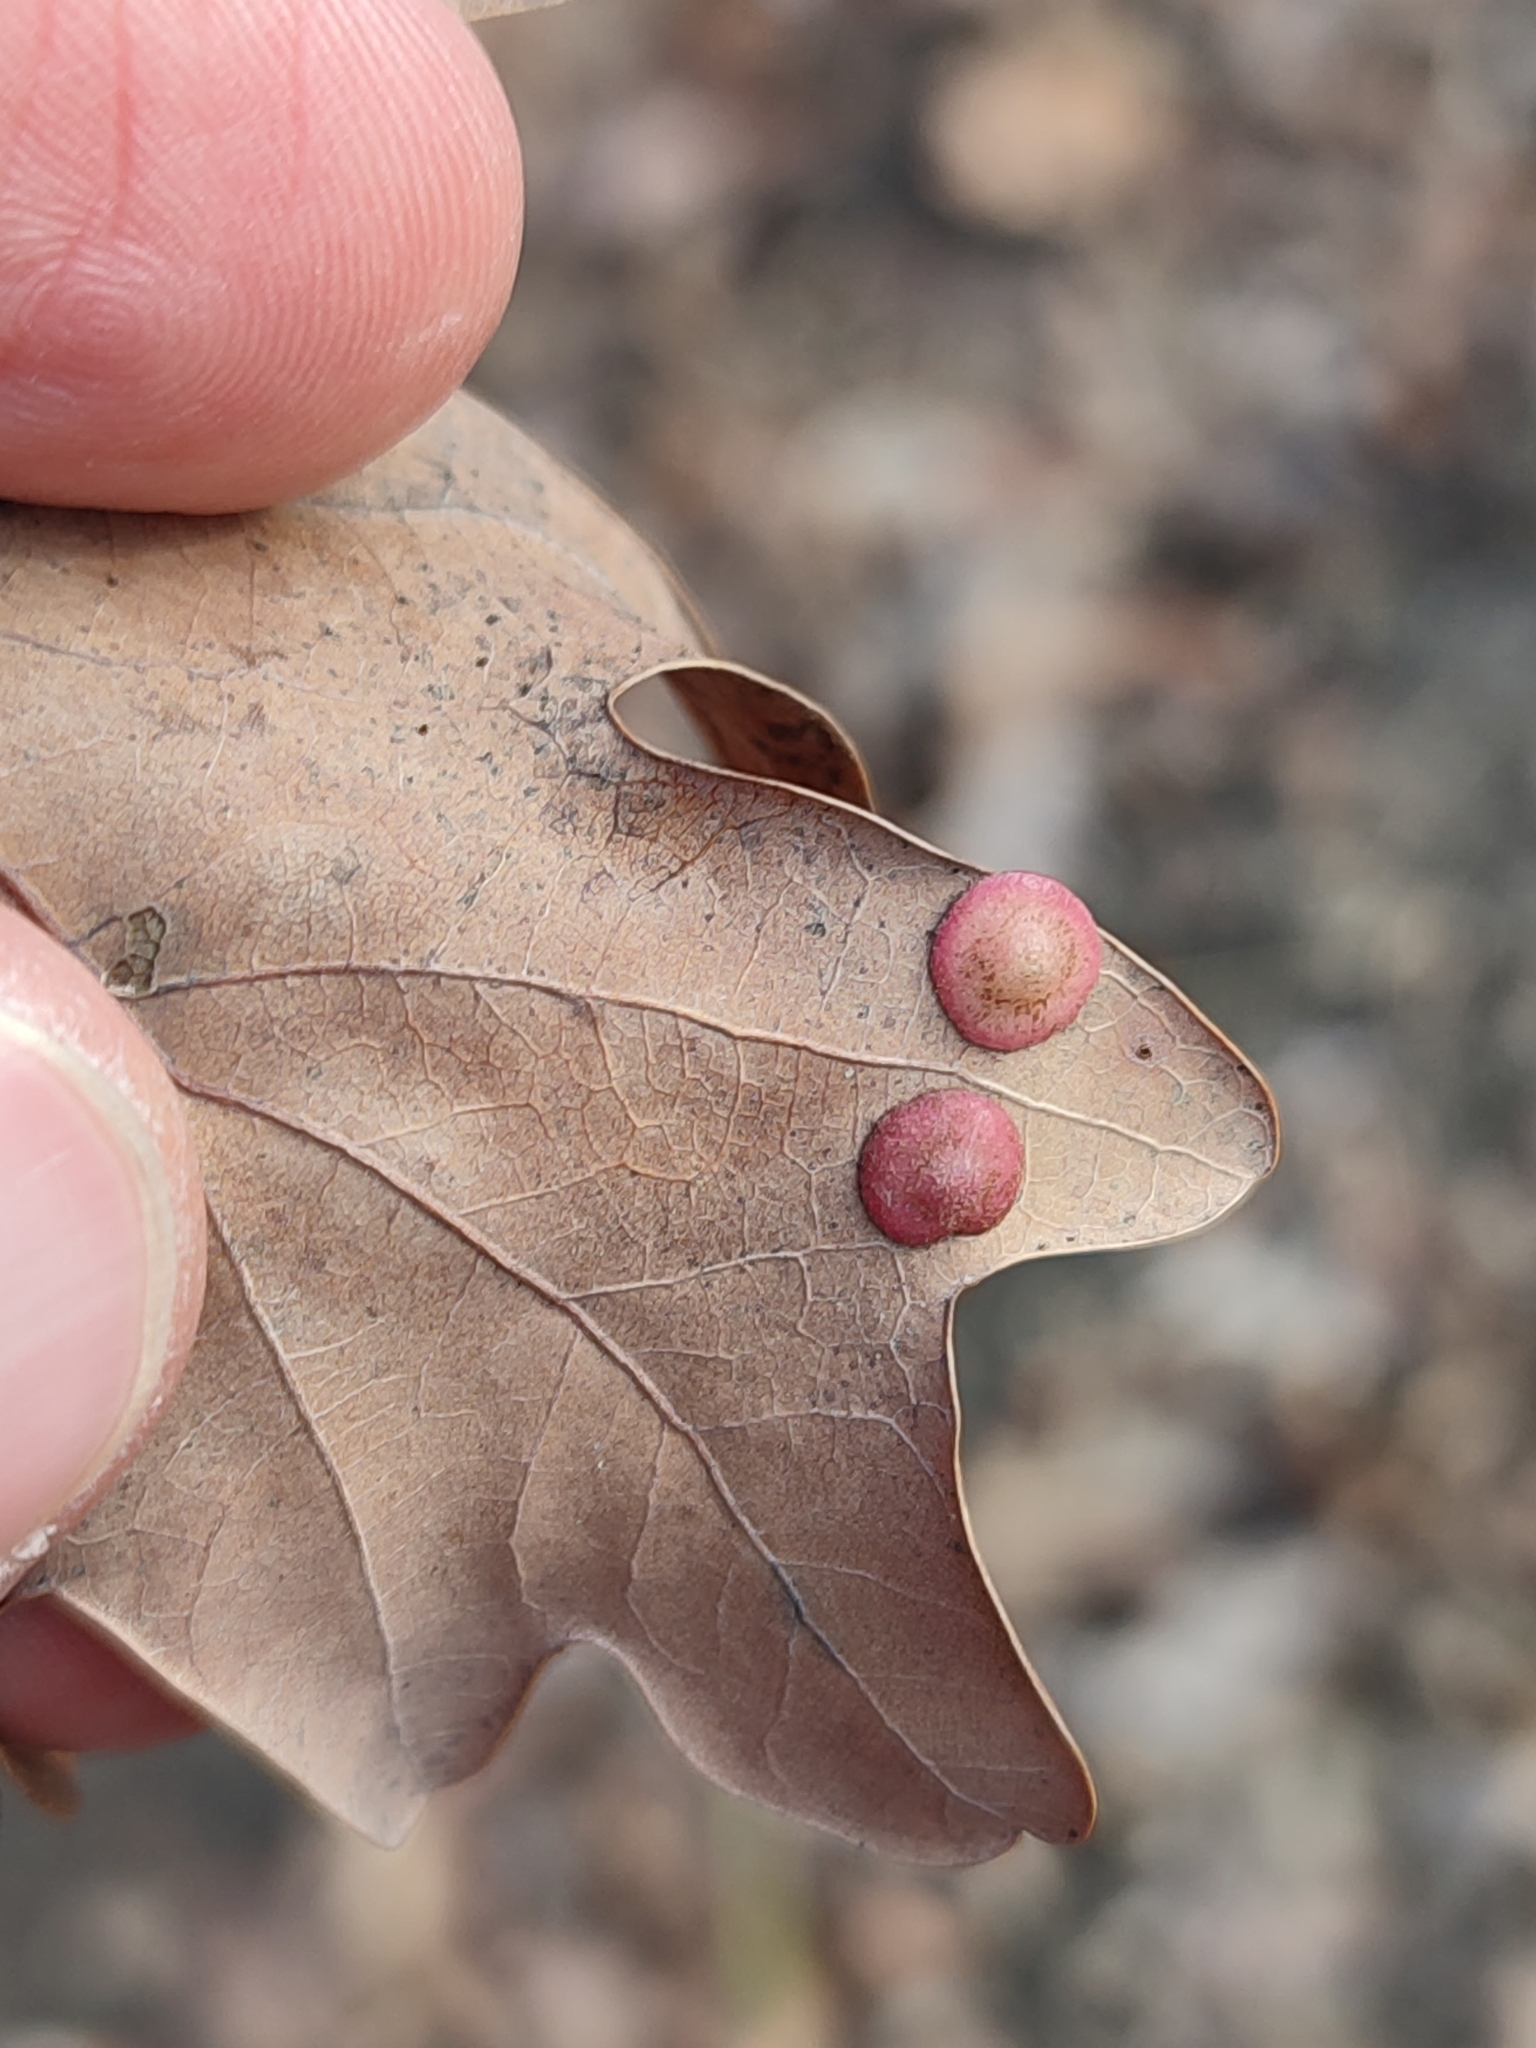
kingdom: Animalia
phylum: Arthropoda
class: Insecta
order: Hymenoptera
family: Cynipidae
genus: Neuroterus
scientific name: Neuroterus quercusbaccarum
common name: Common spangle gall
